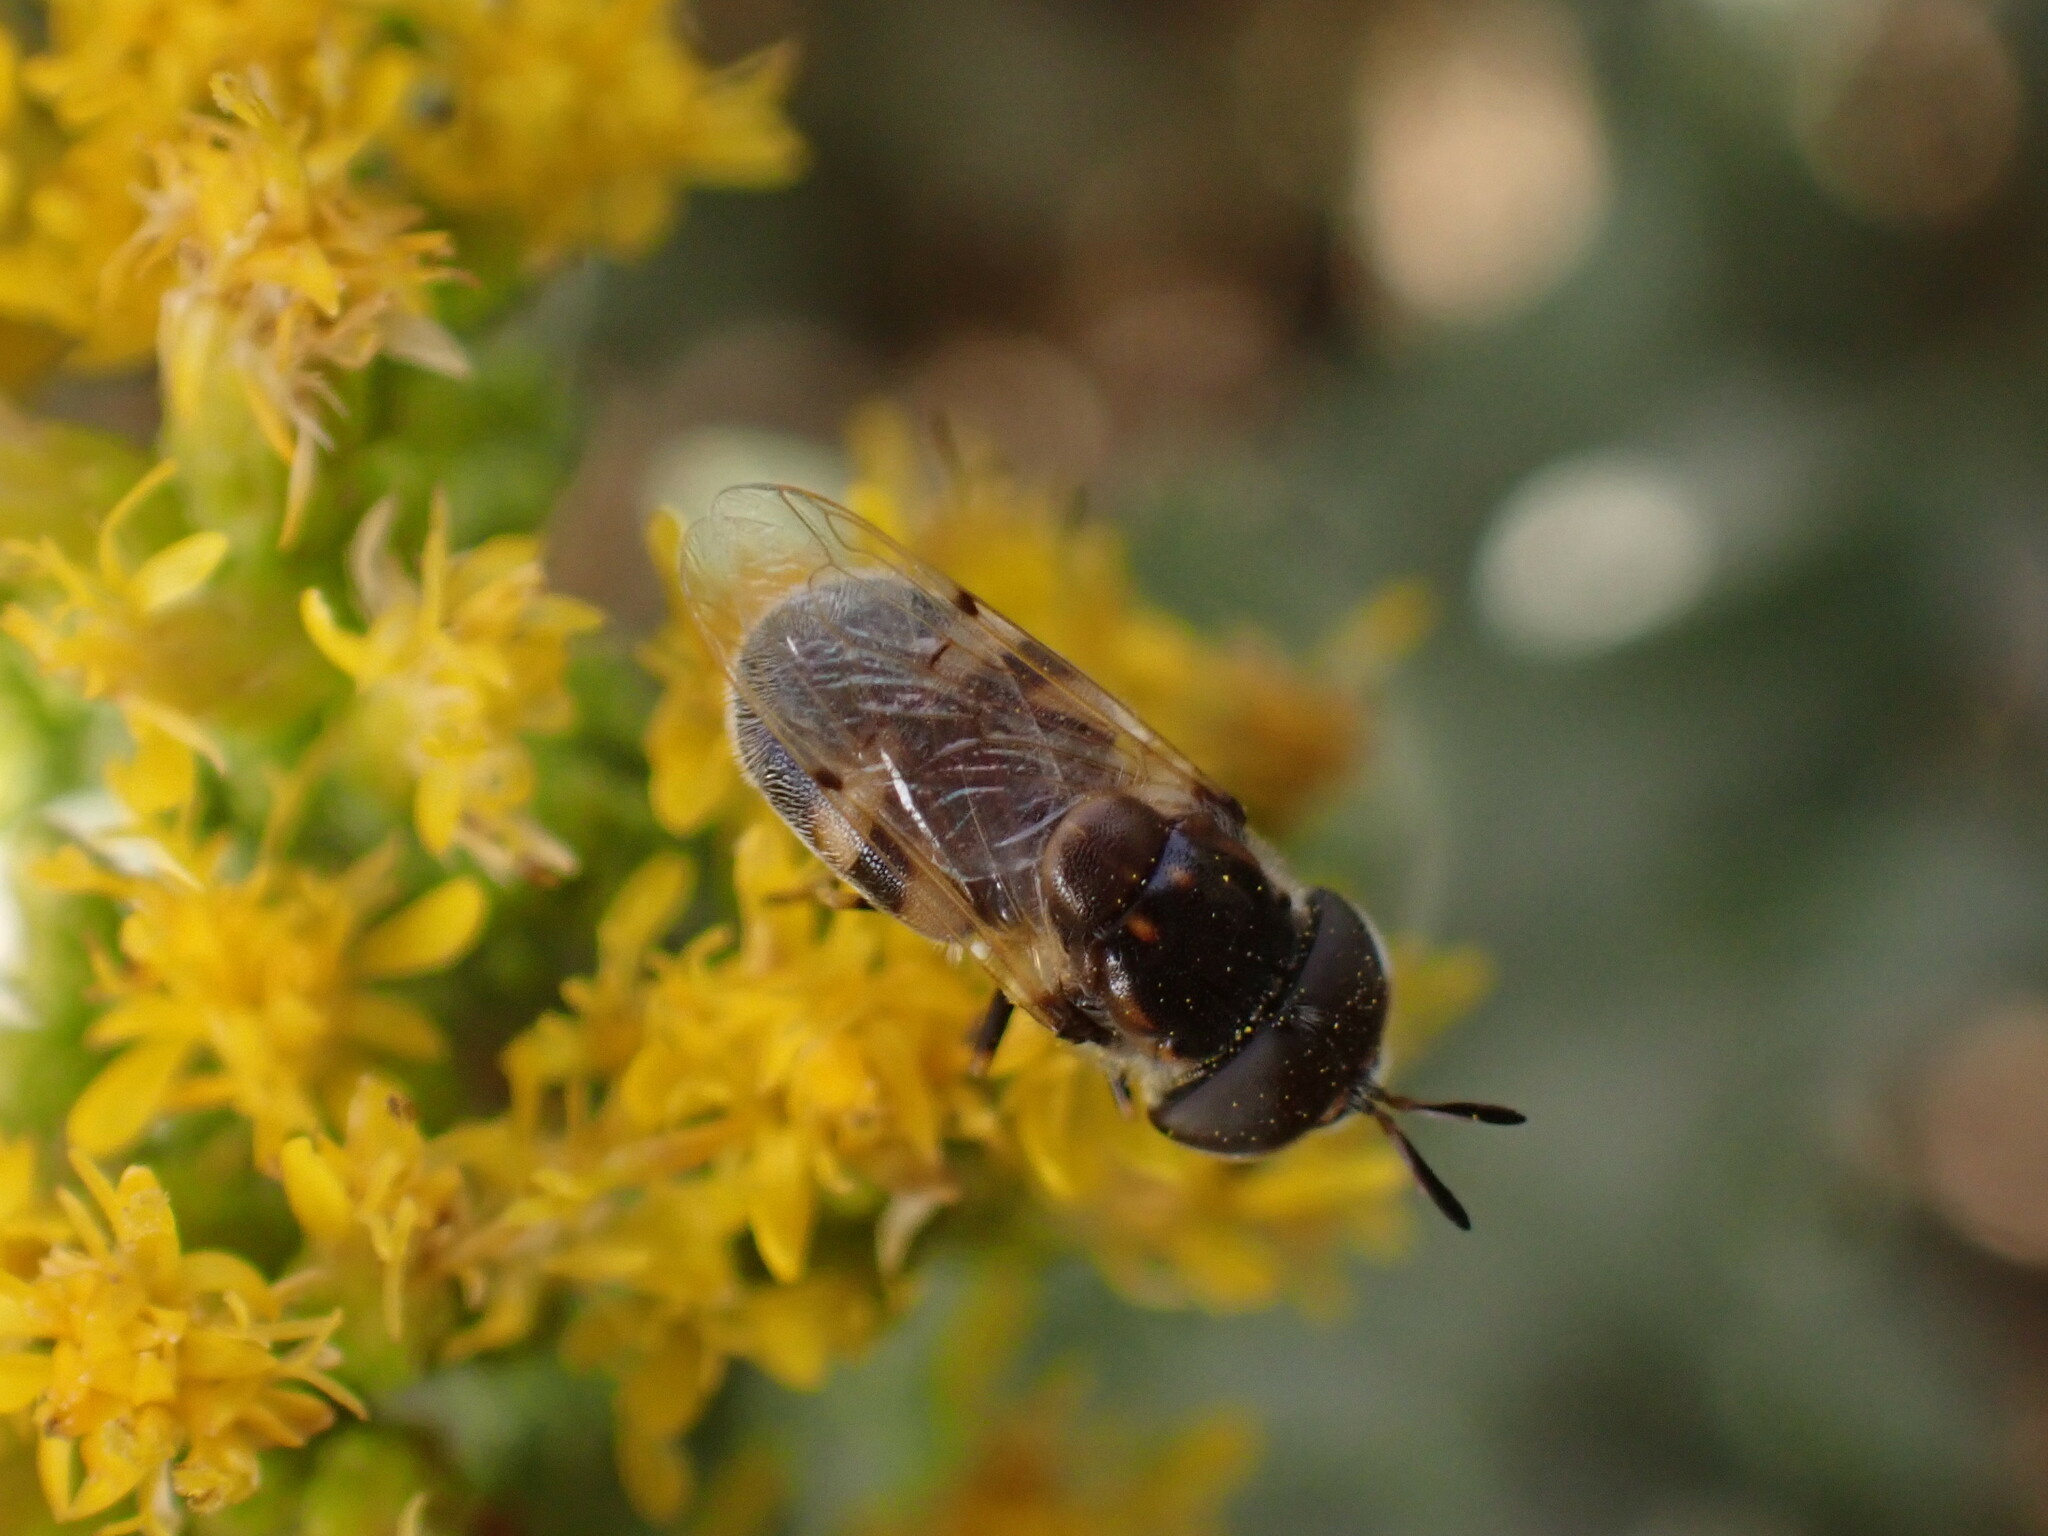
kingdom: Animalia
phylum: Arthropoda
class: Insecta
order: Diptera
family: Syrphidae
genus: Copestylum
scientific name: Copestylum caudatum
